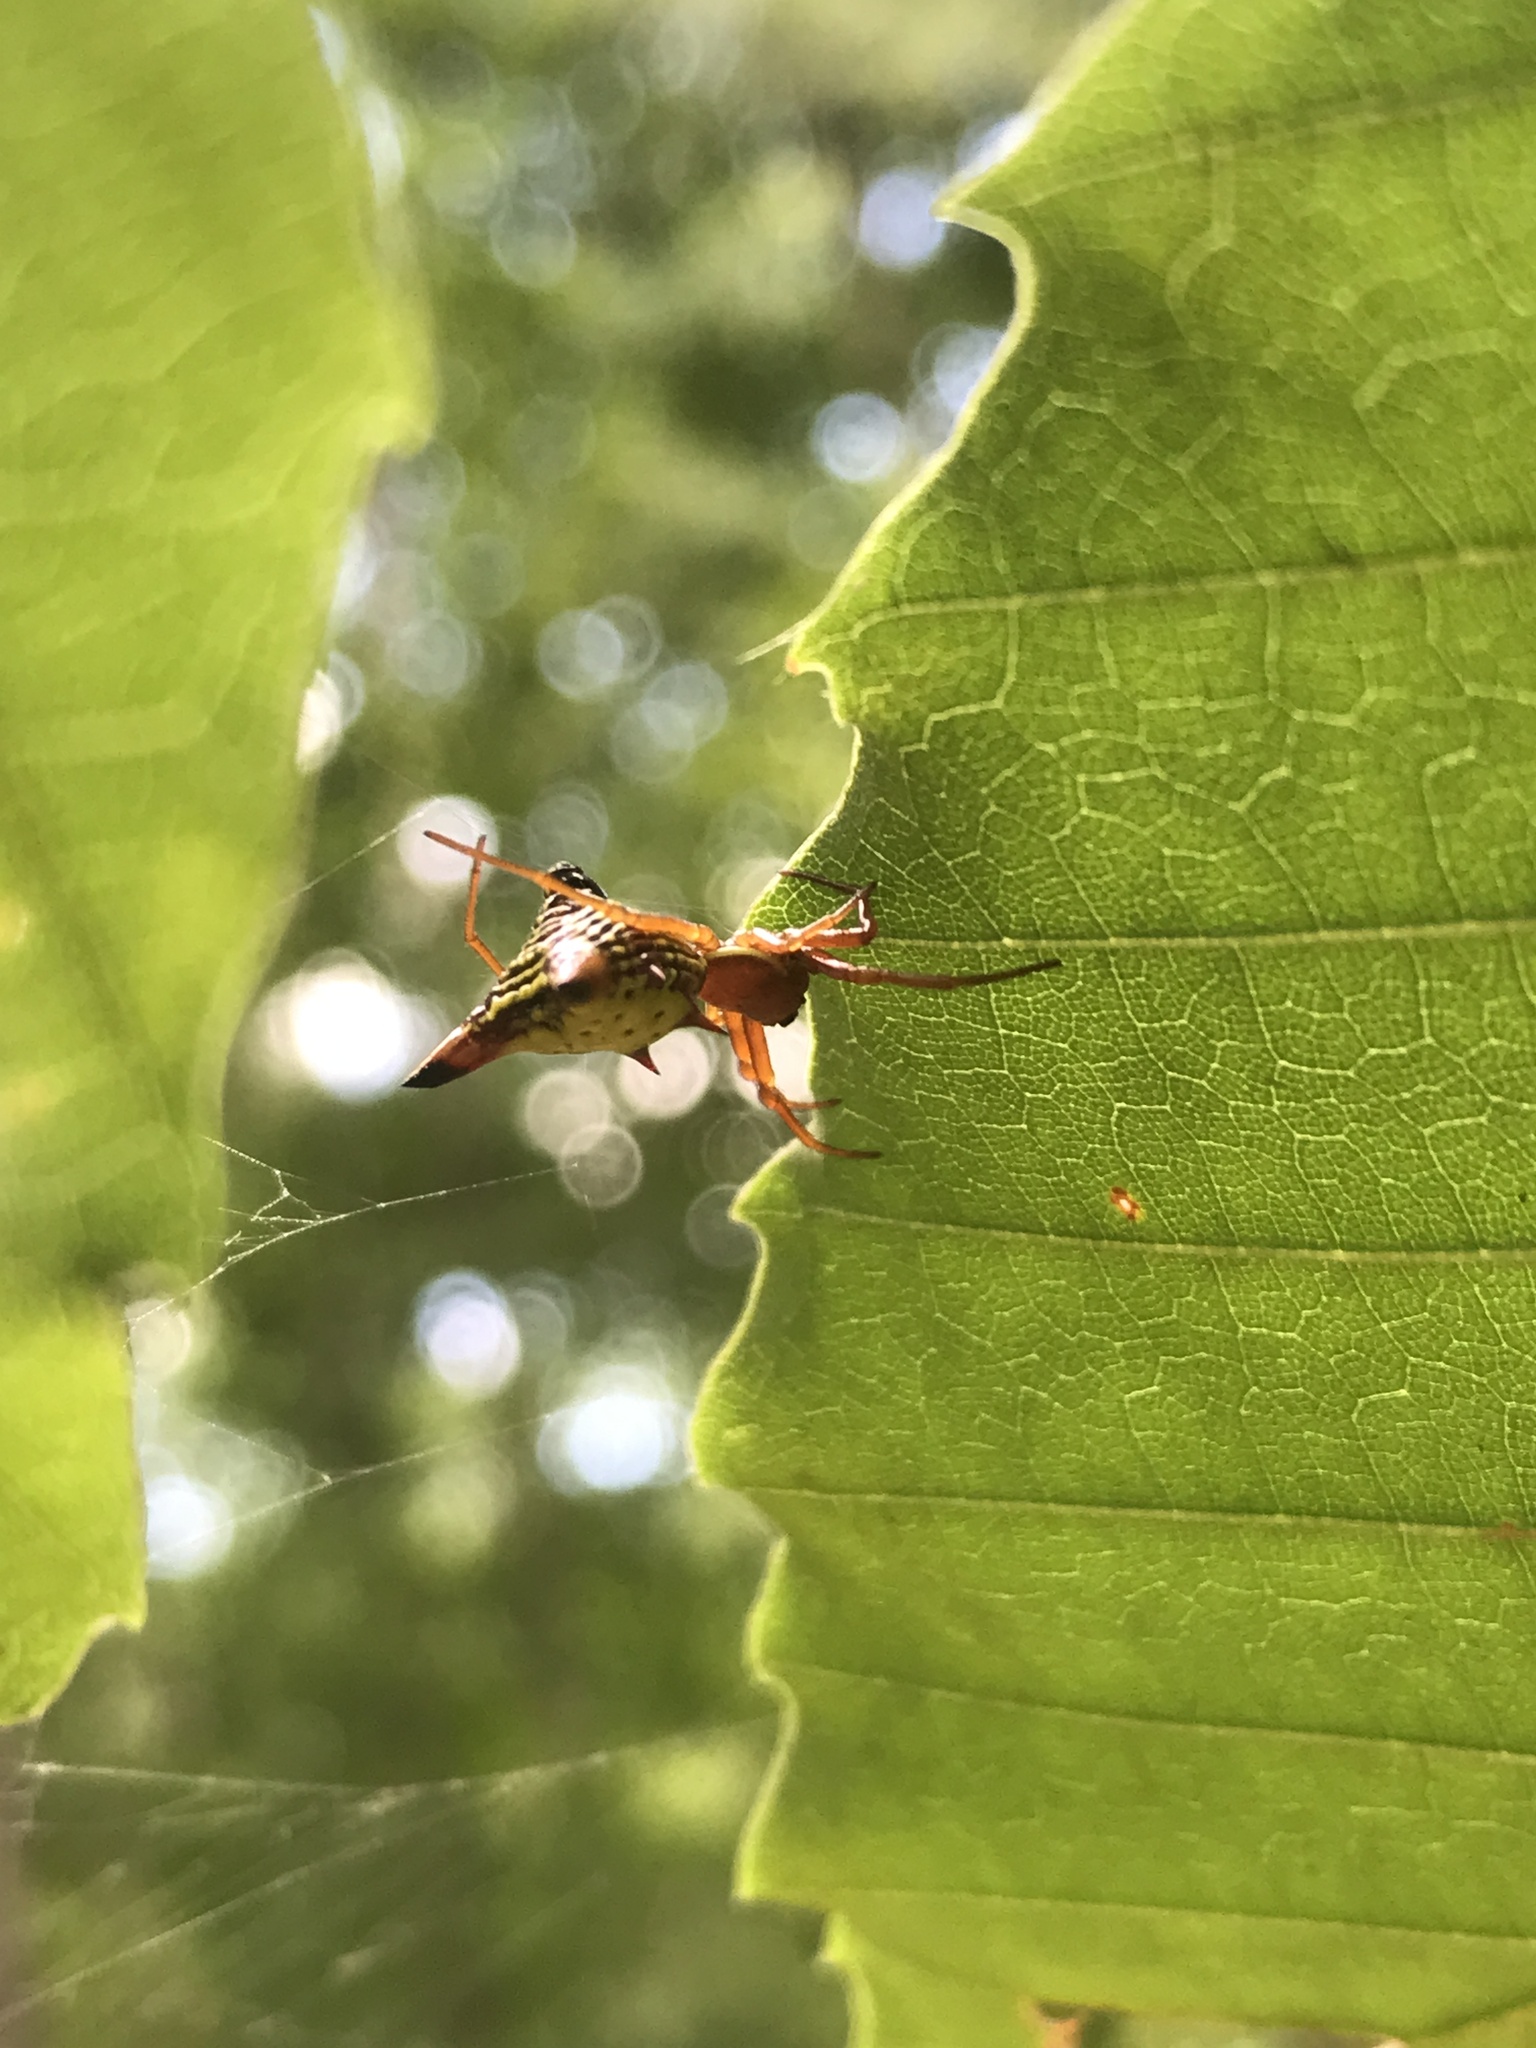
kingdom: Animalia
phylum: Arthropoda
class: Arachnida
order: Araneae
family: Araneidae
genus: Micrathena
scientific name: Micrathena sagittata
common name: Orb weavers
